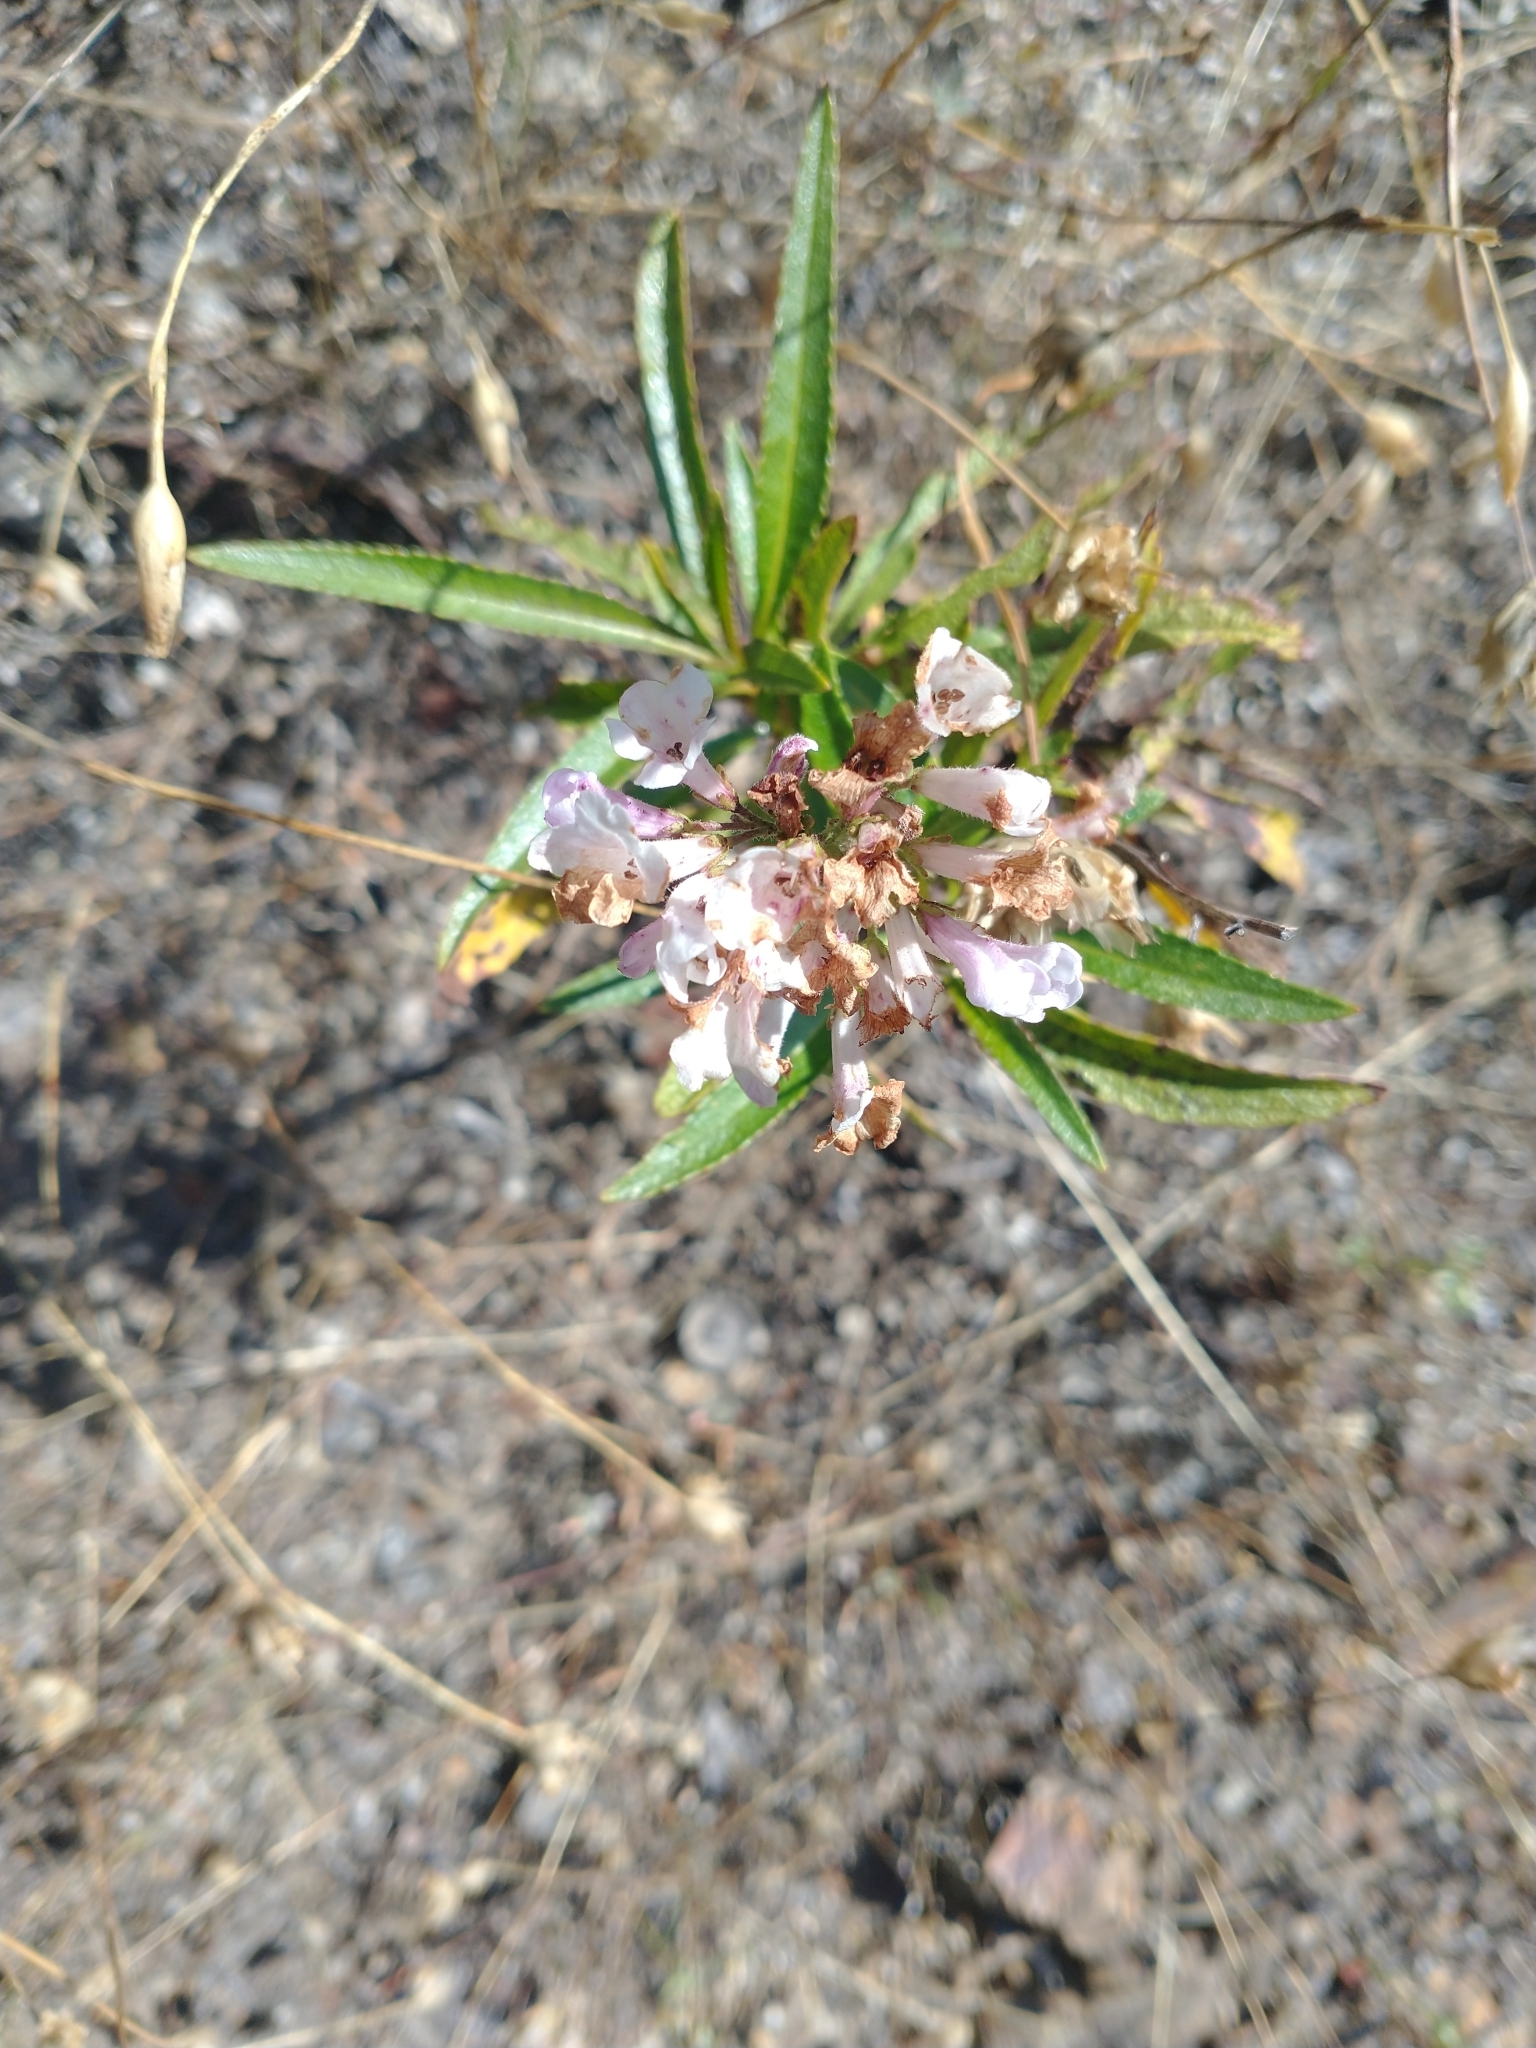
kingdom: Plantae
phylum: Tracheophyta
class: Magnoliopsida
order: Boraginales
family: Namaceae
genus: Eriodictyon
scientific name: Eriodictyon californicum
